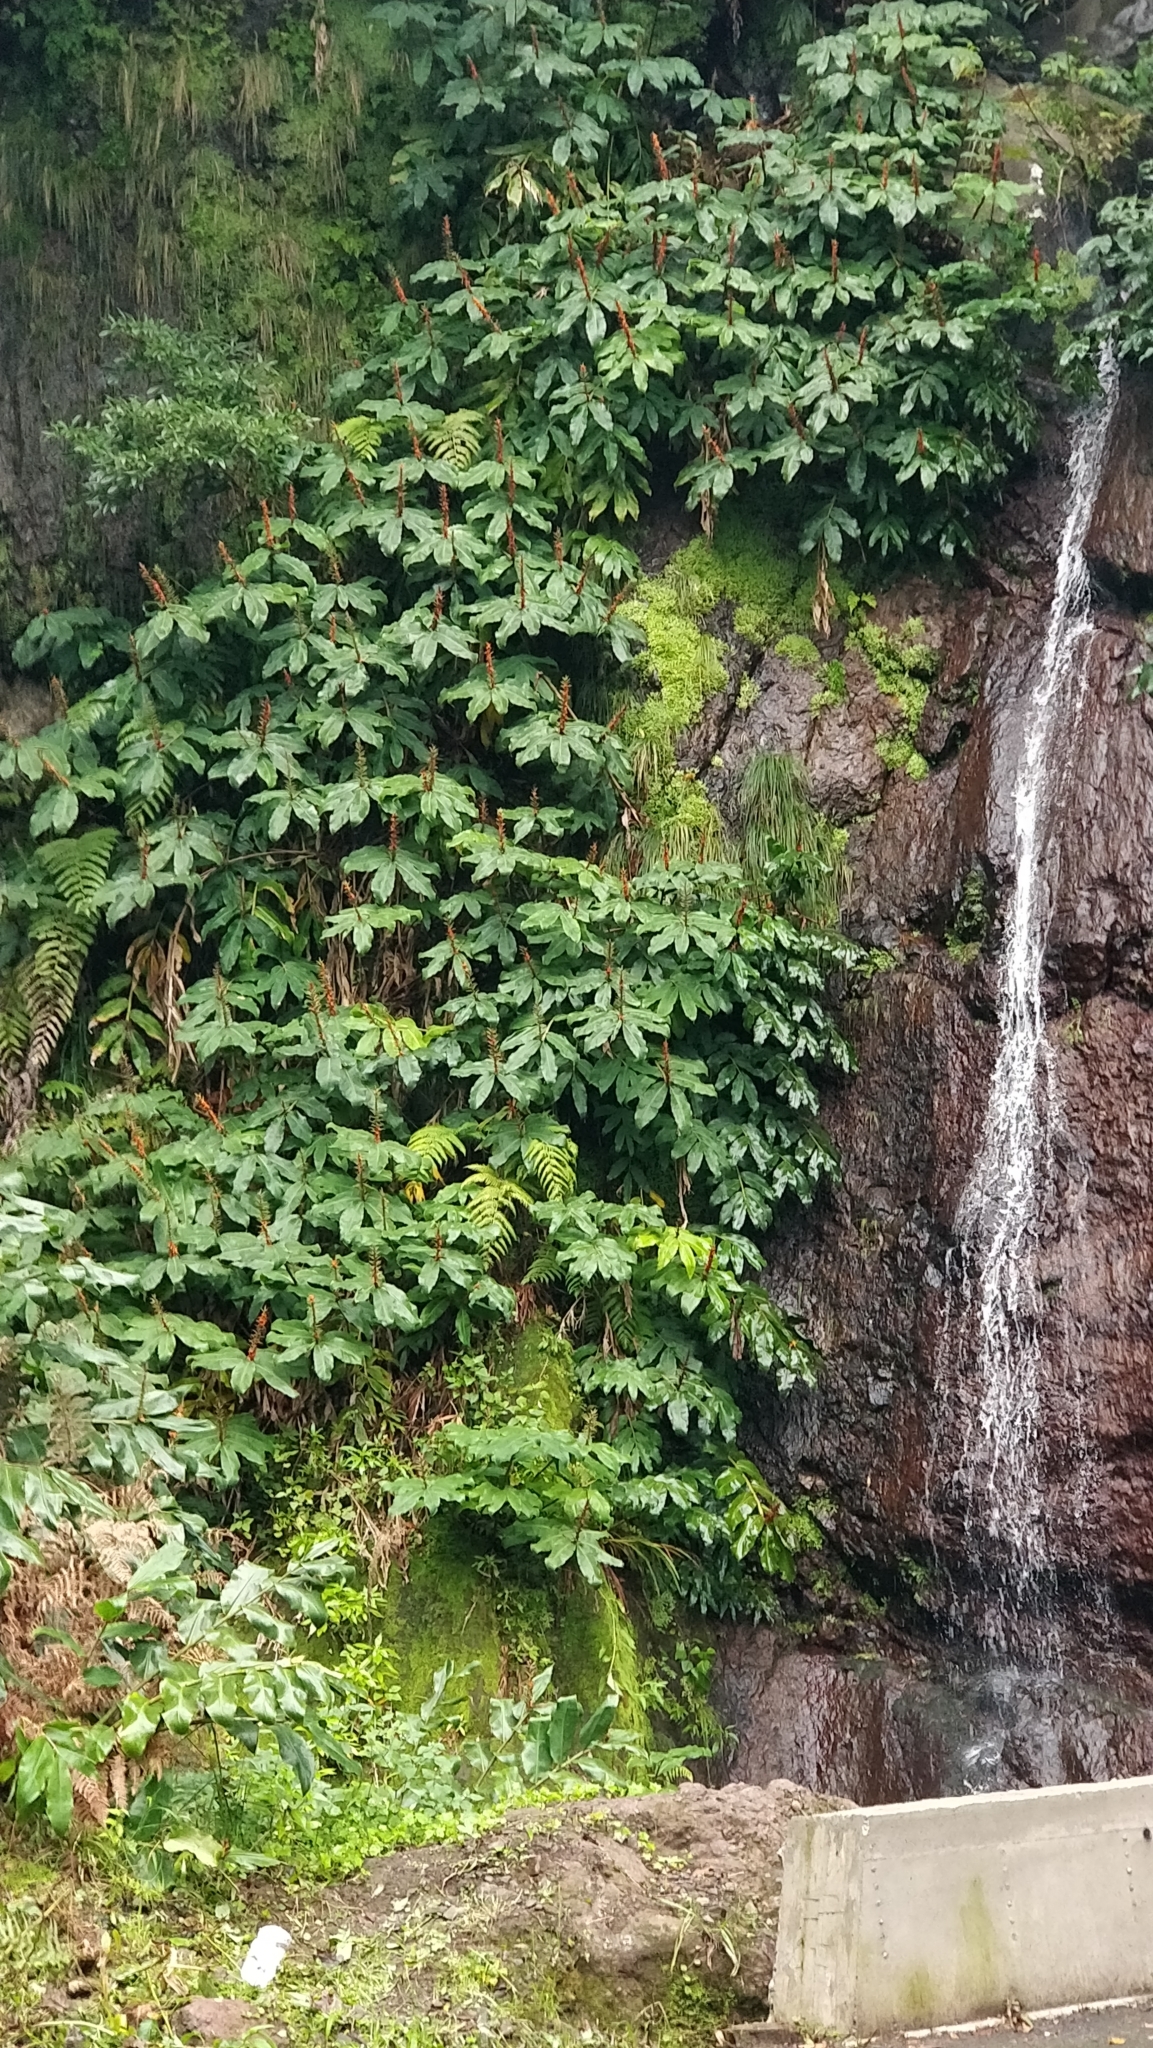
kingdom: Plantae
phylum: Tracheophyta
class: Liliopsida
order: Zingiberales
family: Zingiberaceae
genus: Hedychium
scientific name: Hedychium gardnerianum
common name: Himalayan ginger
